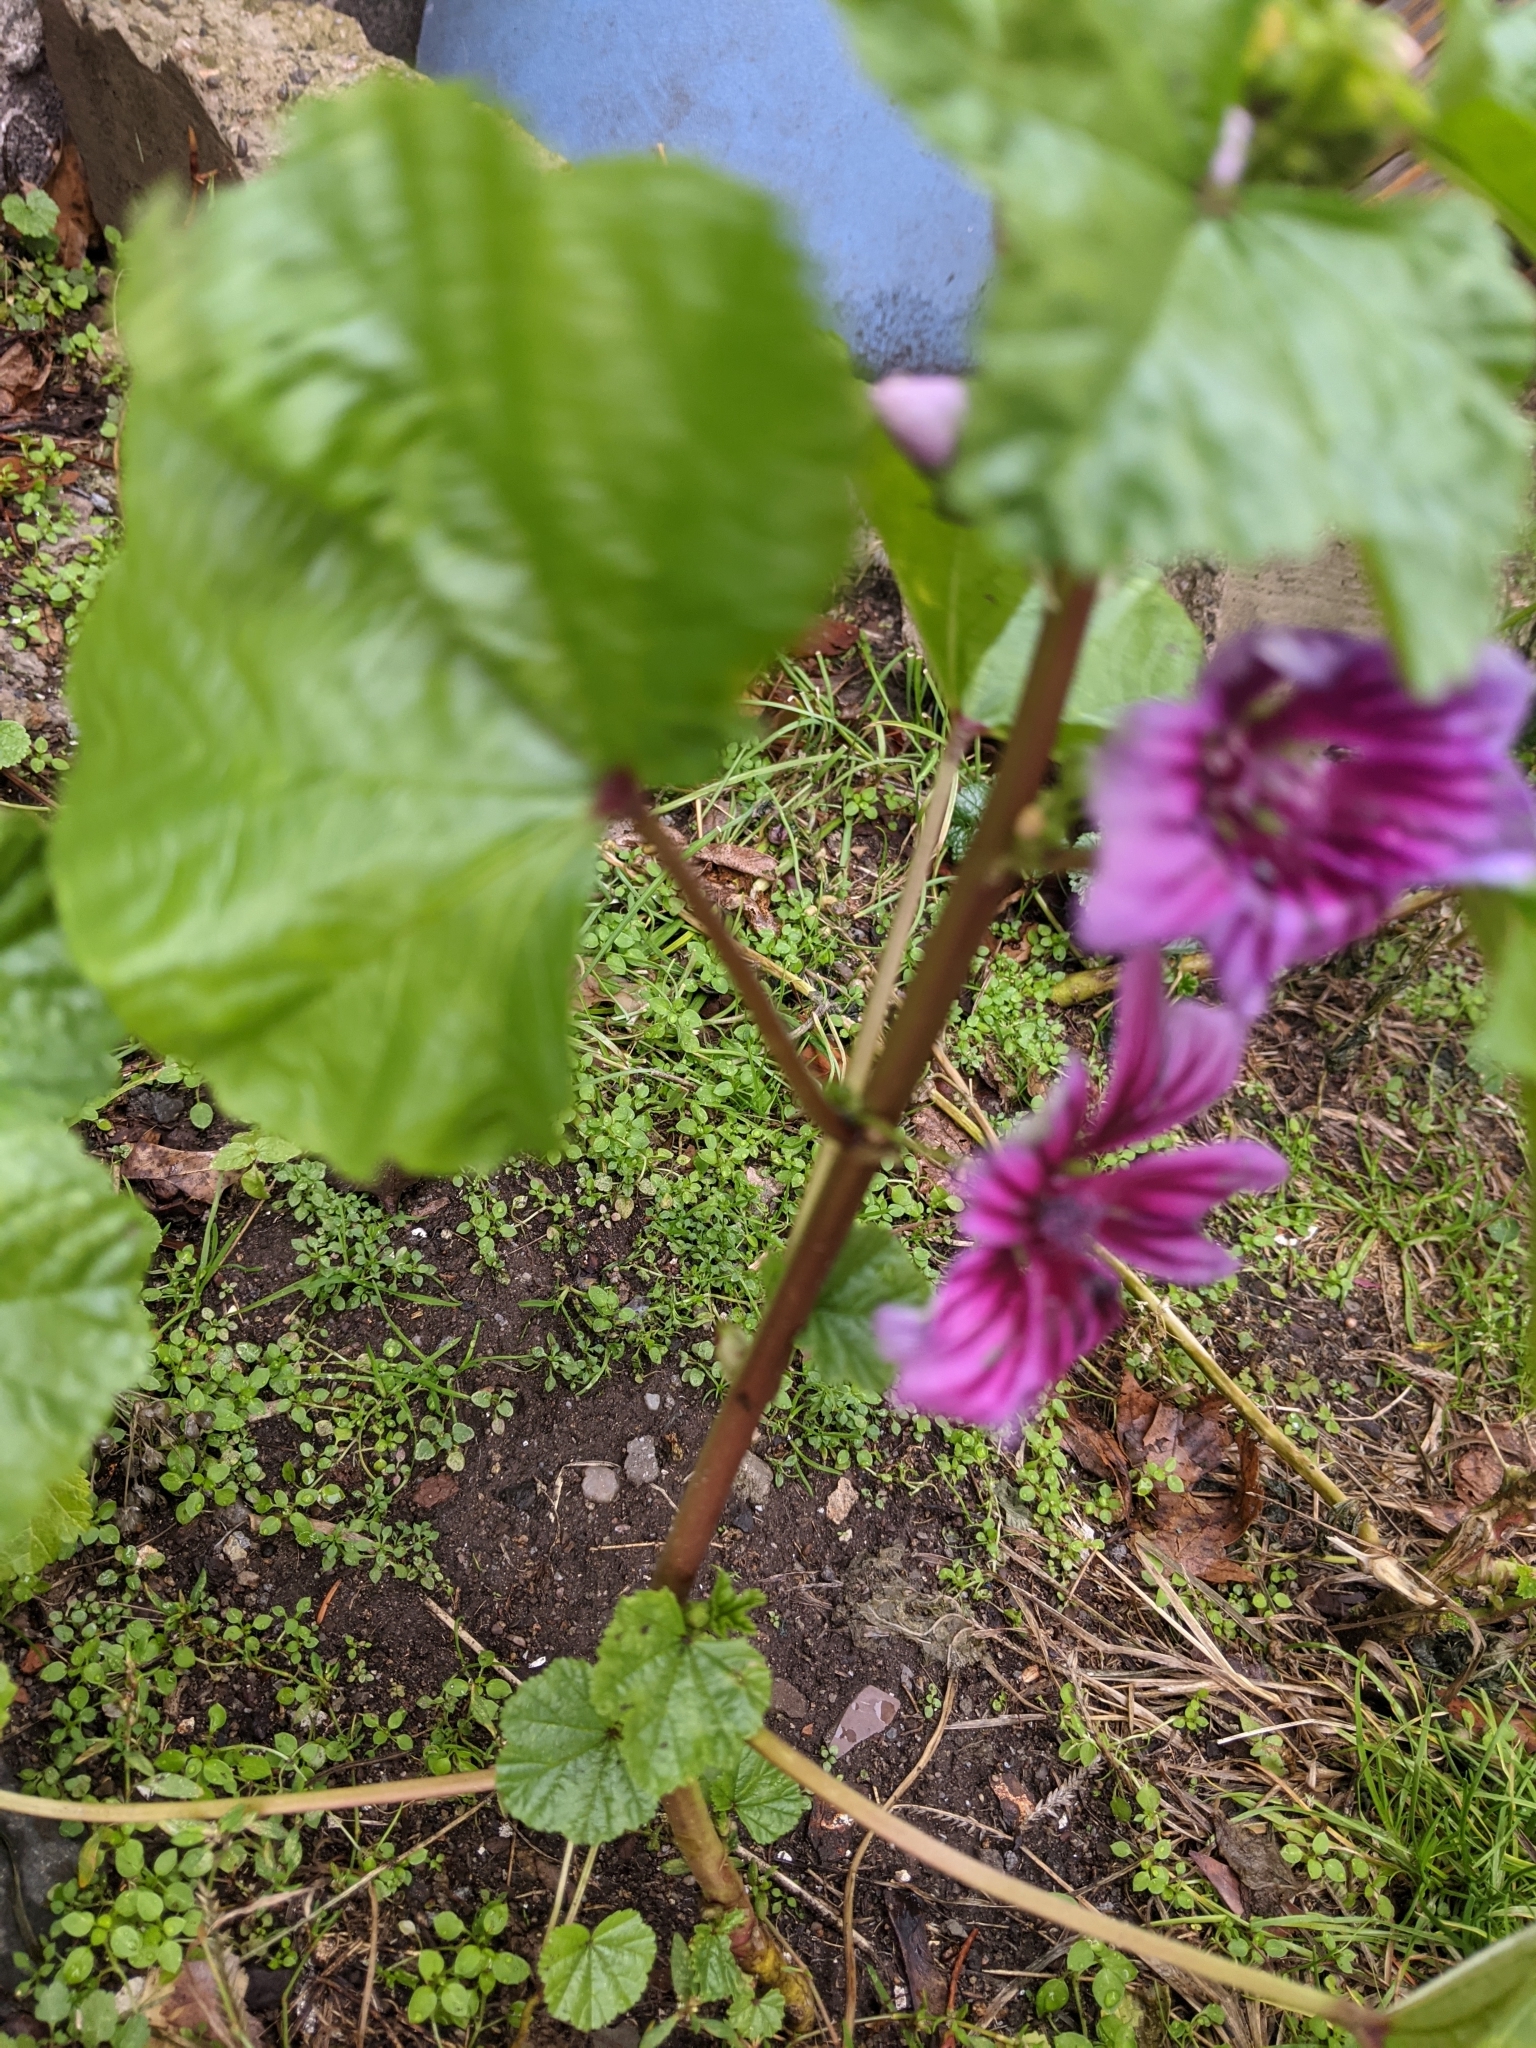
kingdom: Plantae
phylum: Tracheophyta
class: Magnoliopsida
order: Malvales
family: Malvaceae
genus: Malva
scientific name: Malva sylvestris
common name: Common mallow
